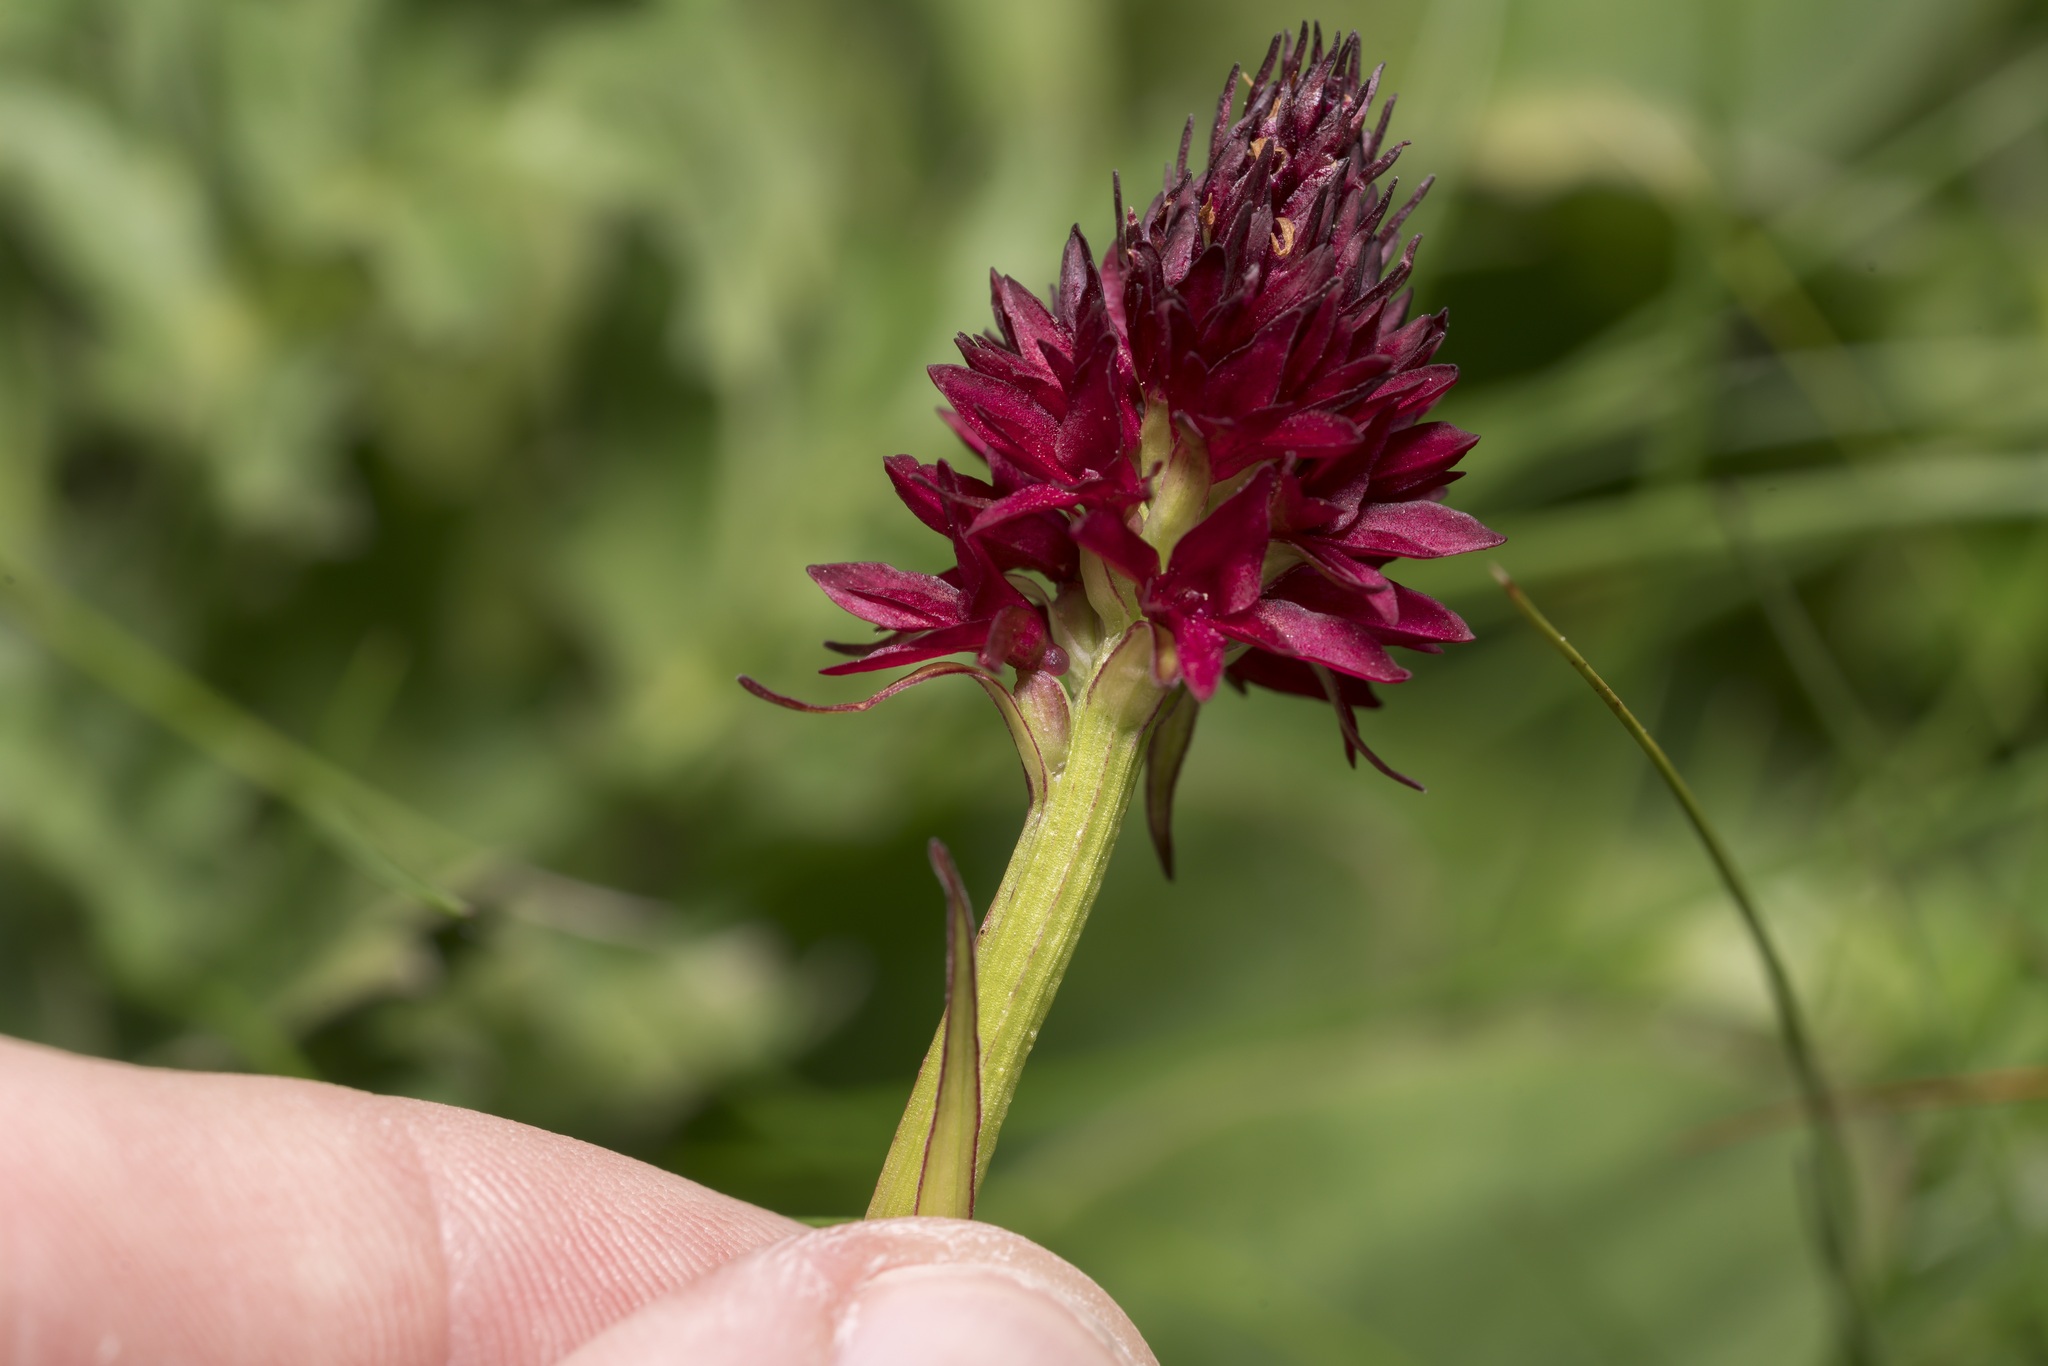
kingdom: Plantae
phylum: Tracheophyta
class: Liliopsida
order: Asparagales
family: Orchidaceae
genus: Gymnadenia
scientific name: Gymnadenia rhellicani
